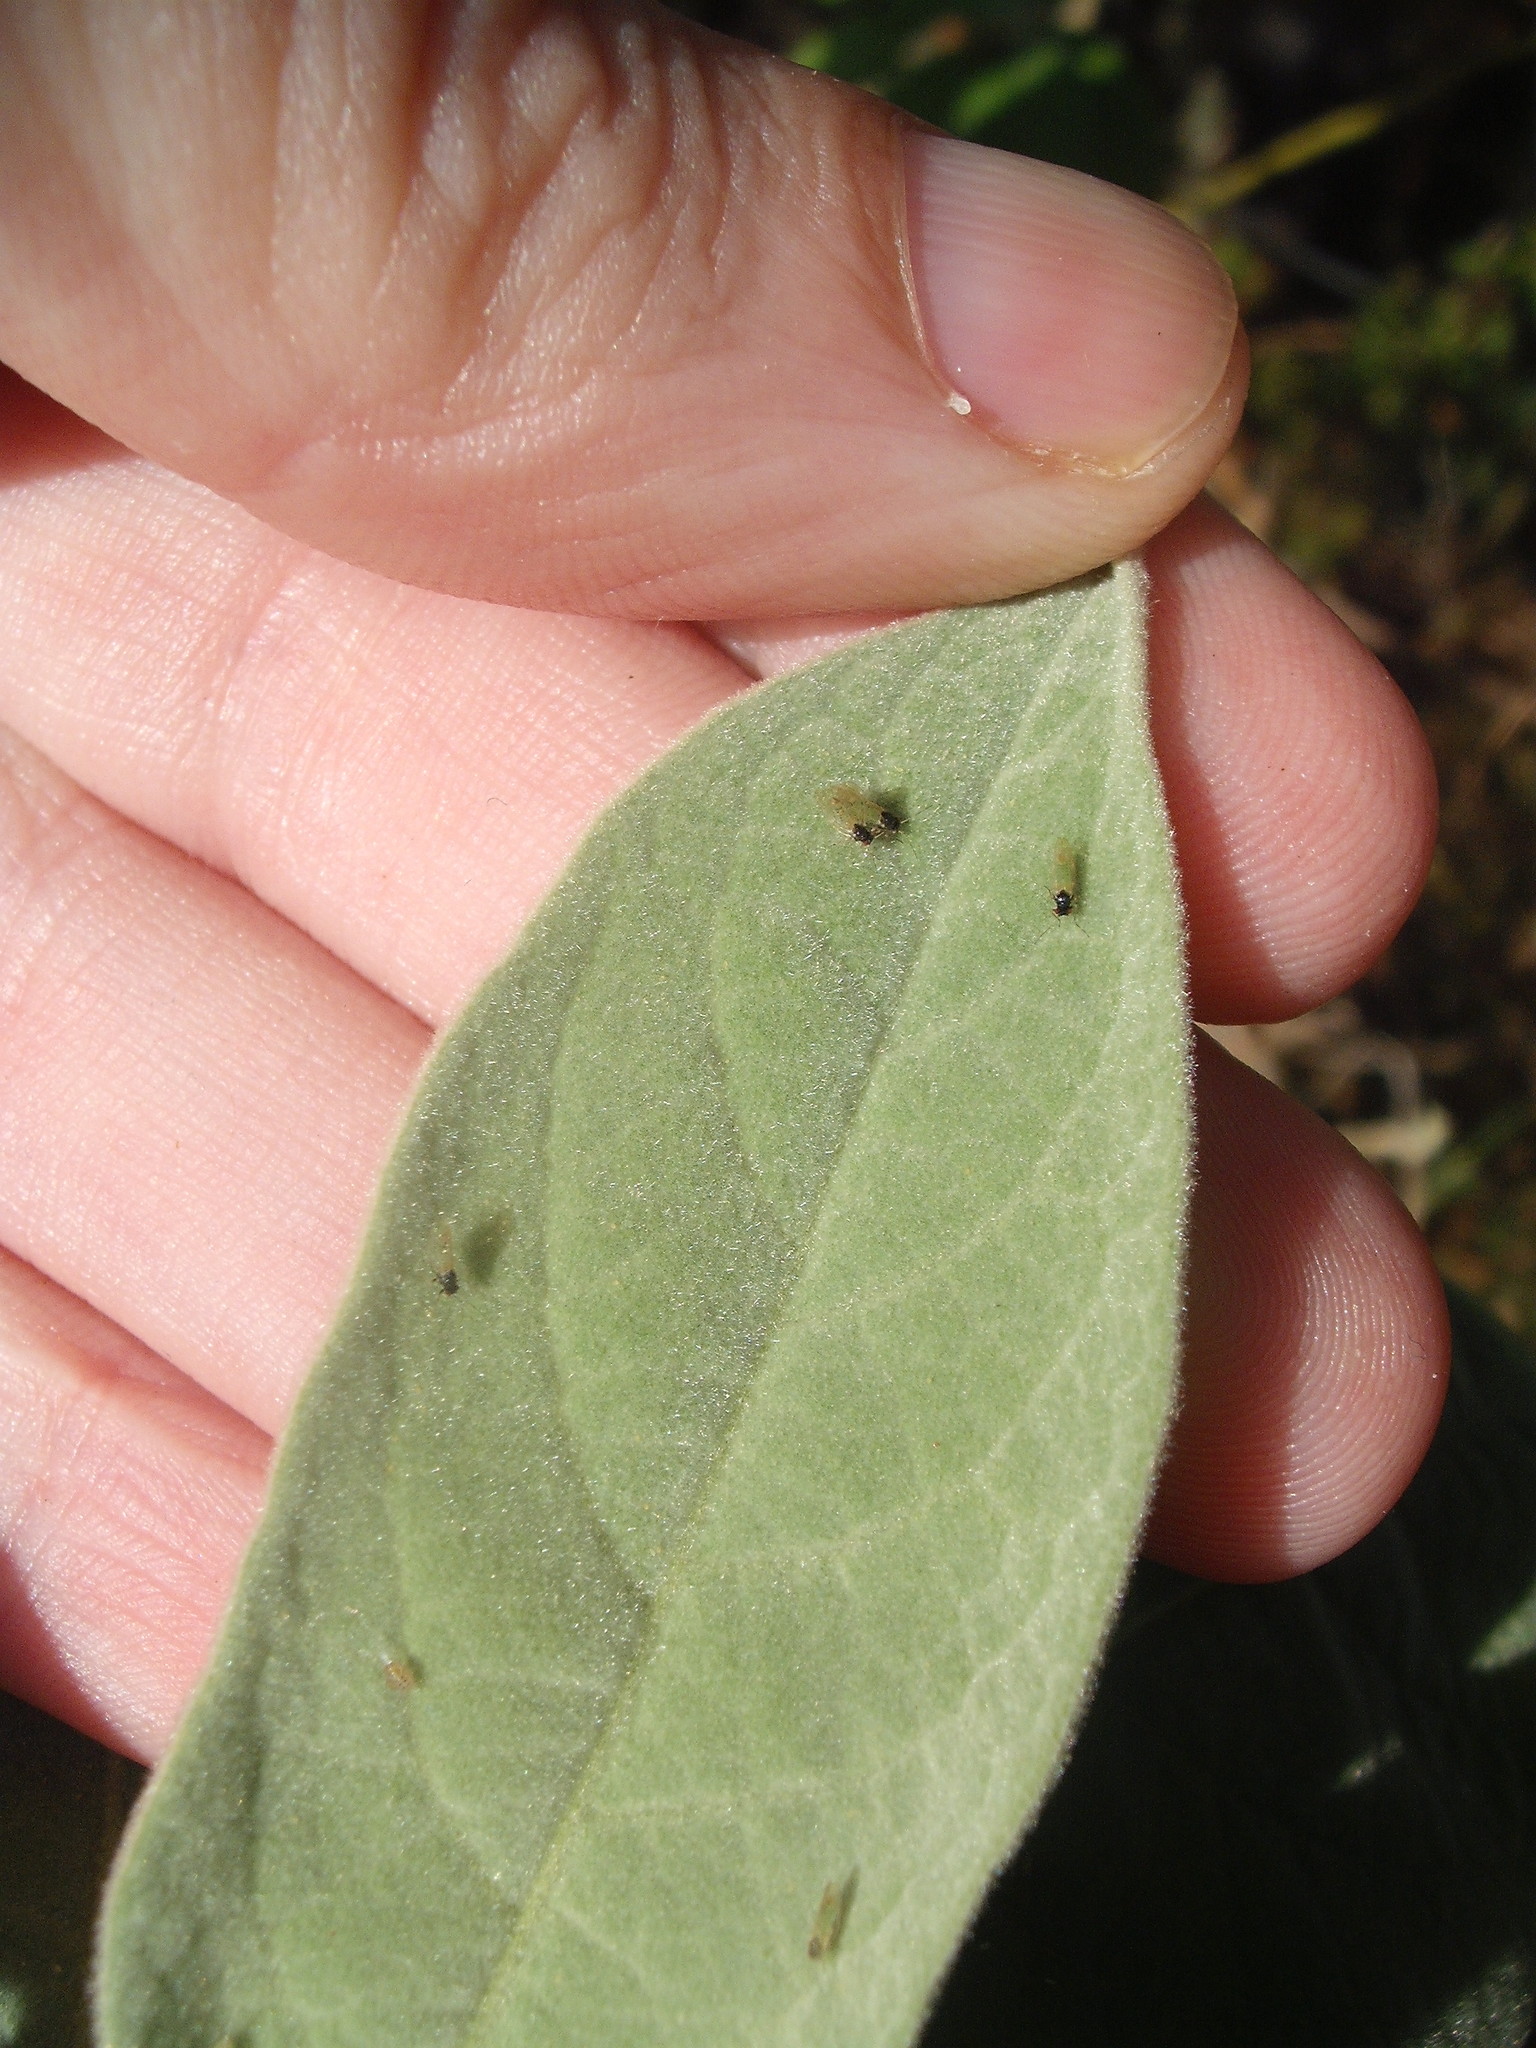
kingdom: Animalia
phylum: Arthropoda
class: Insecta
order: Hemiptera
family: Psyllidae
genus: Acizzia
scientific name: Acizzia solanicola
